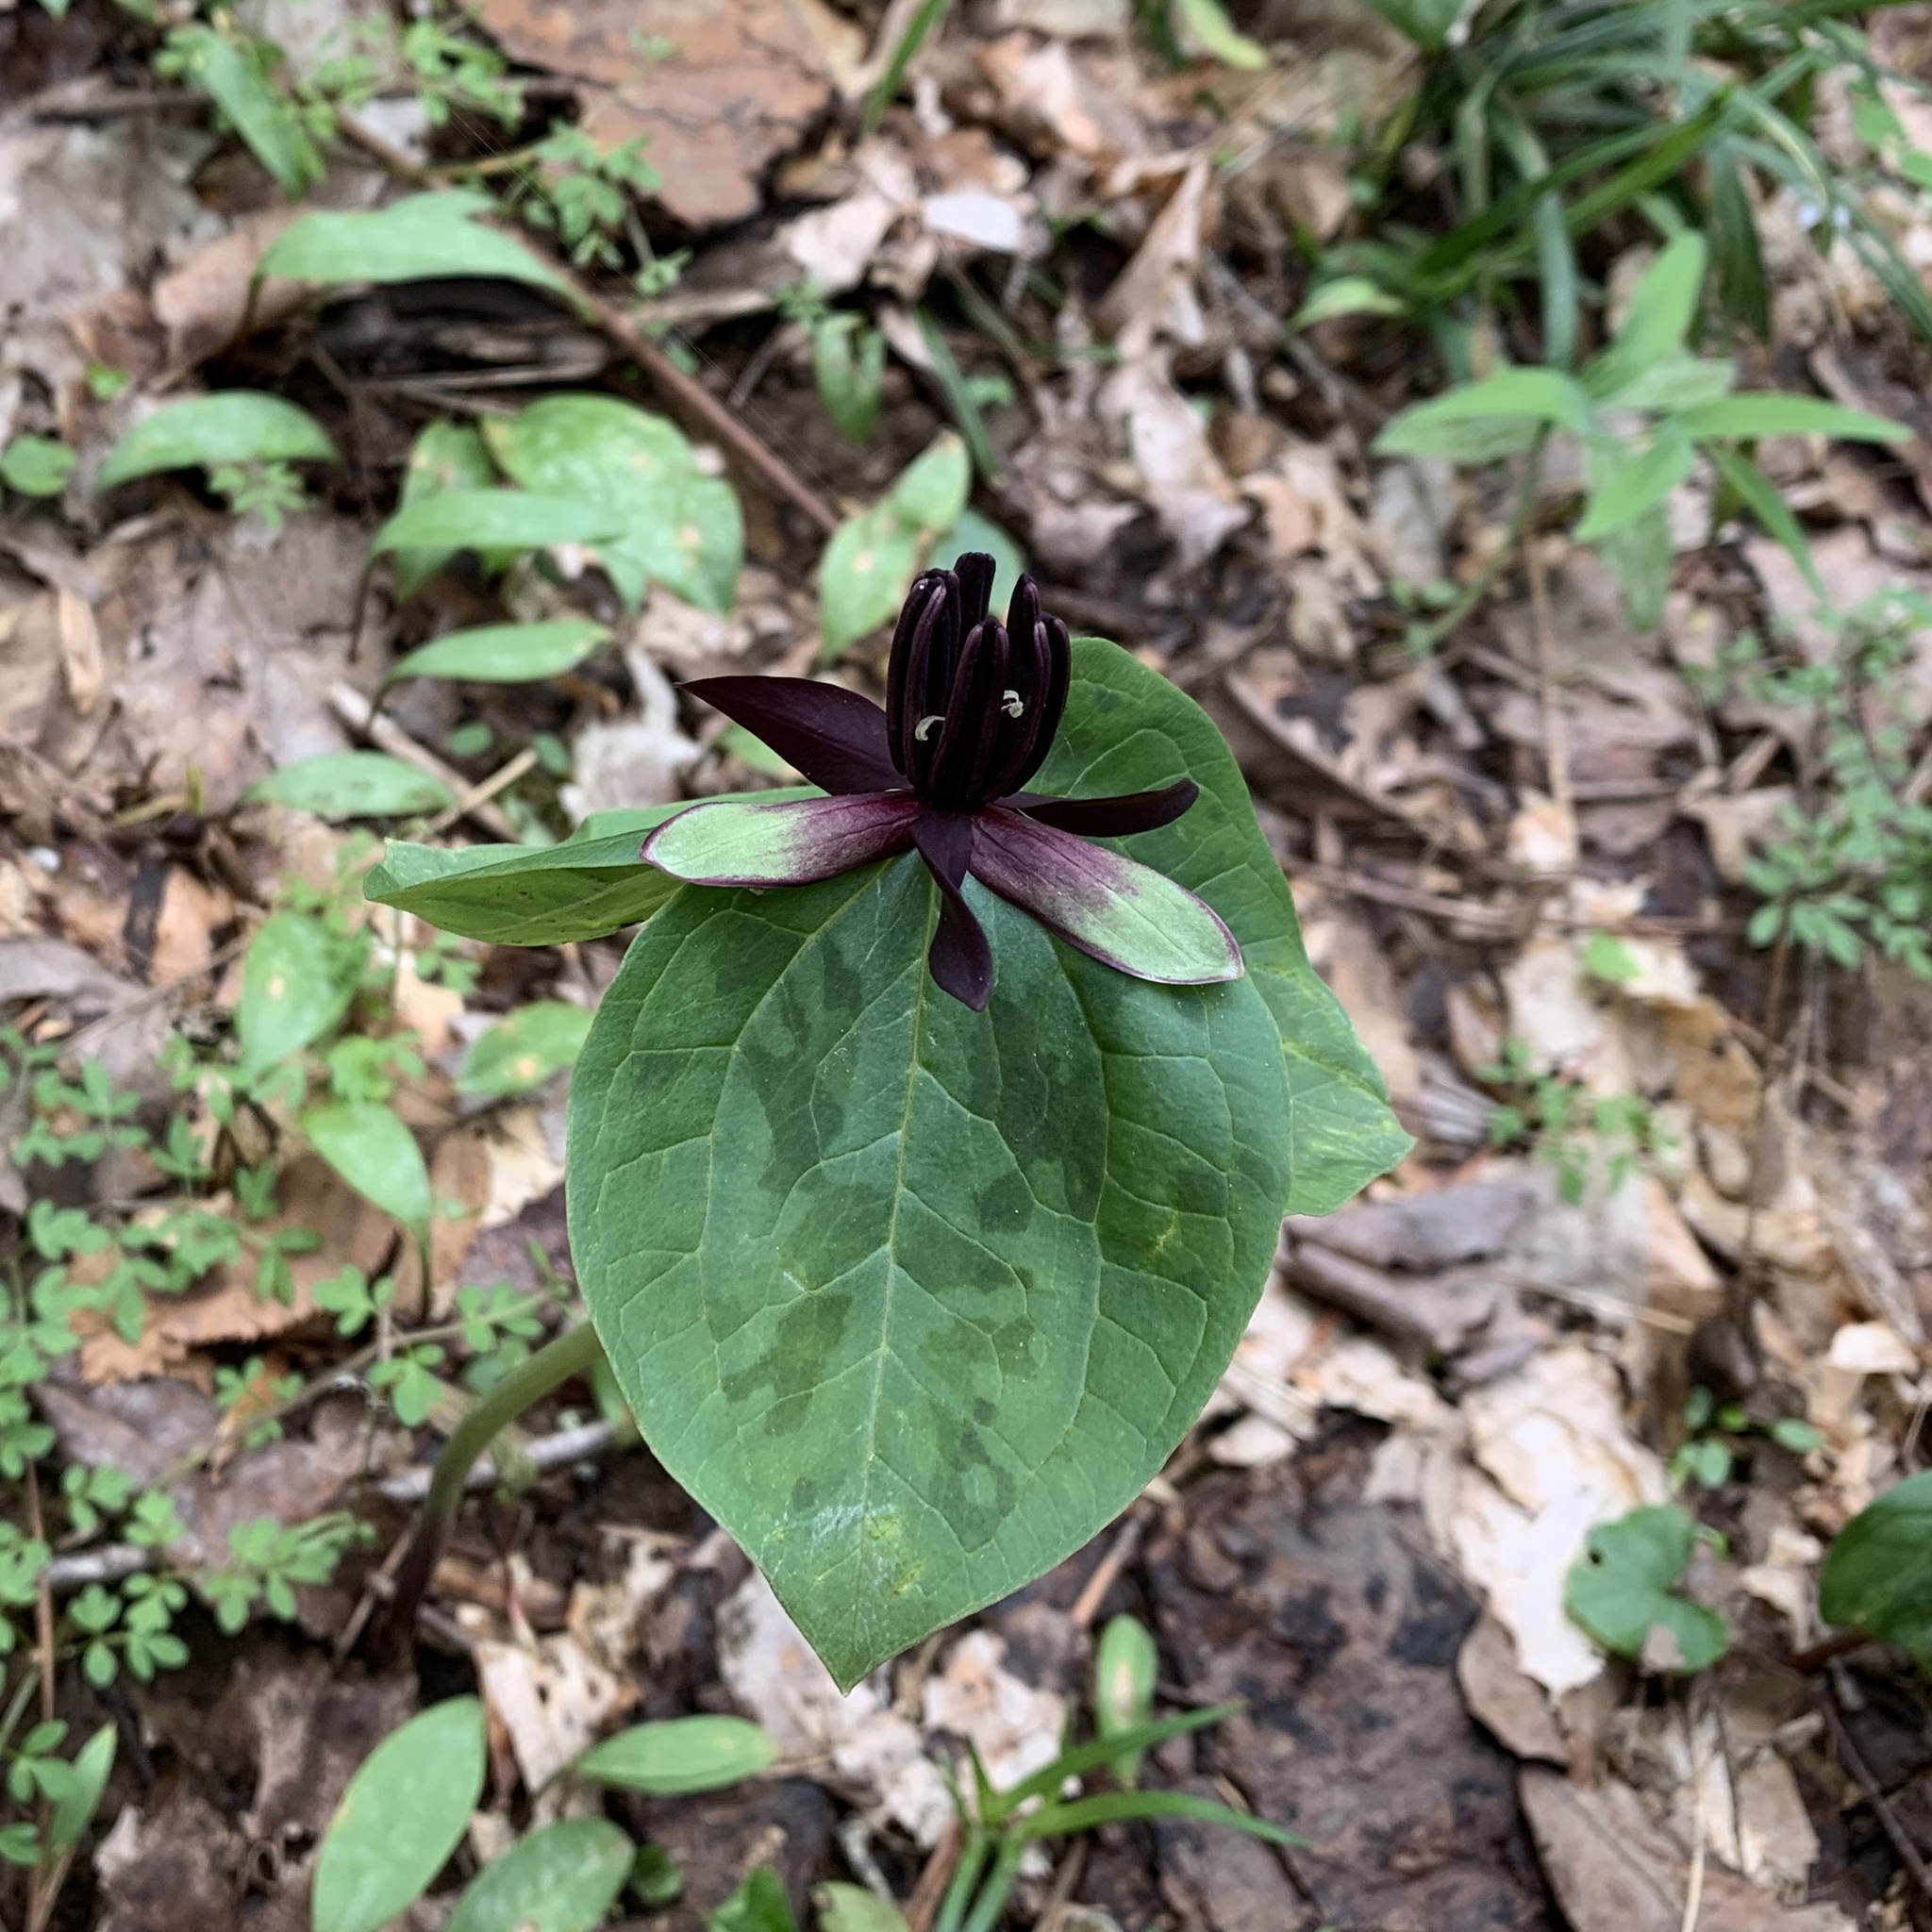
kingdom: Plantae
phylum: Tracheophyta
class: Liliopsida
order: Liliales
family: Melanthiaceae
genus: Trillium
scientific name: Trillium stamineum
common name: Blue ridge wakerobin
